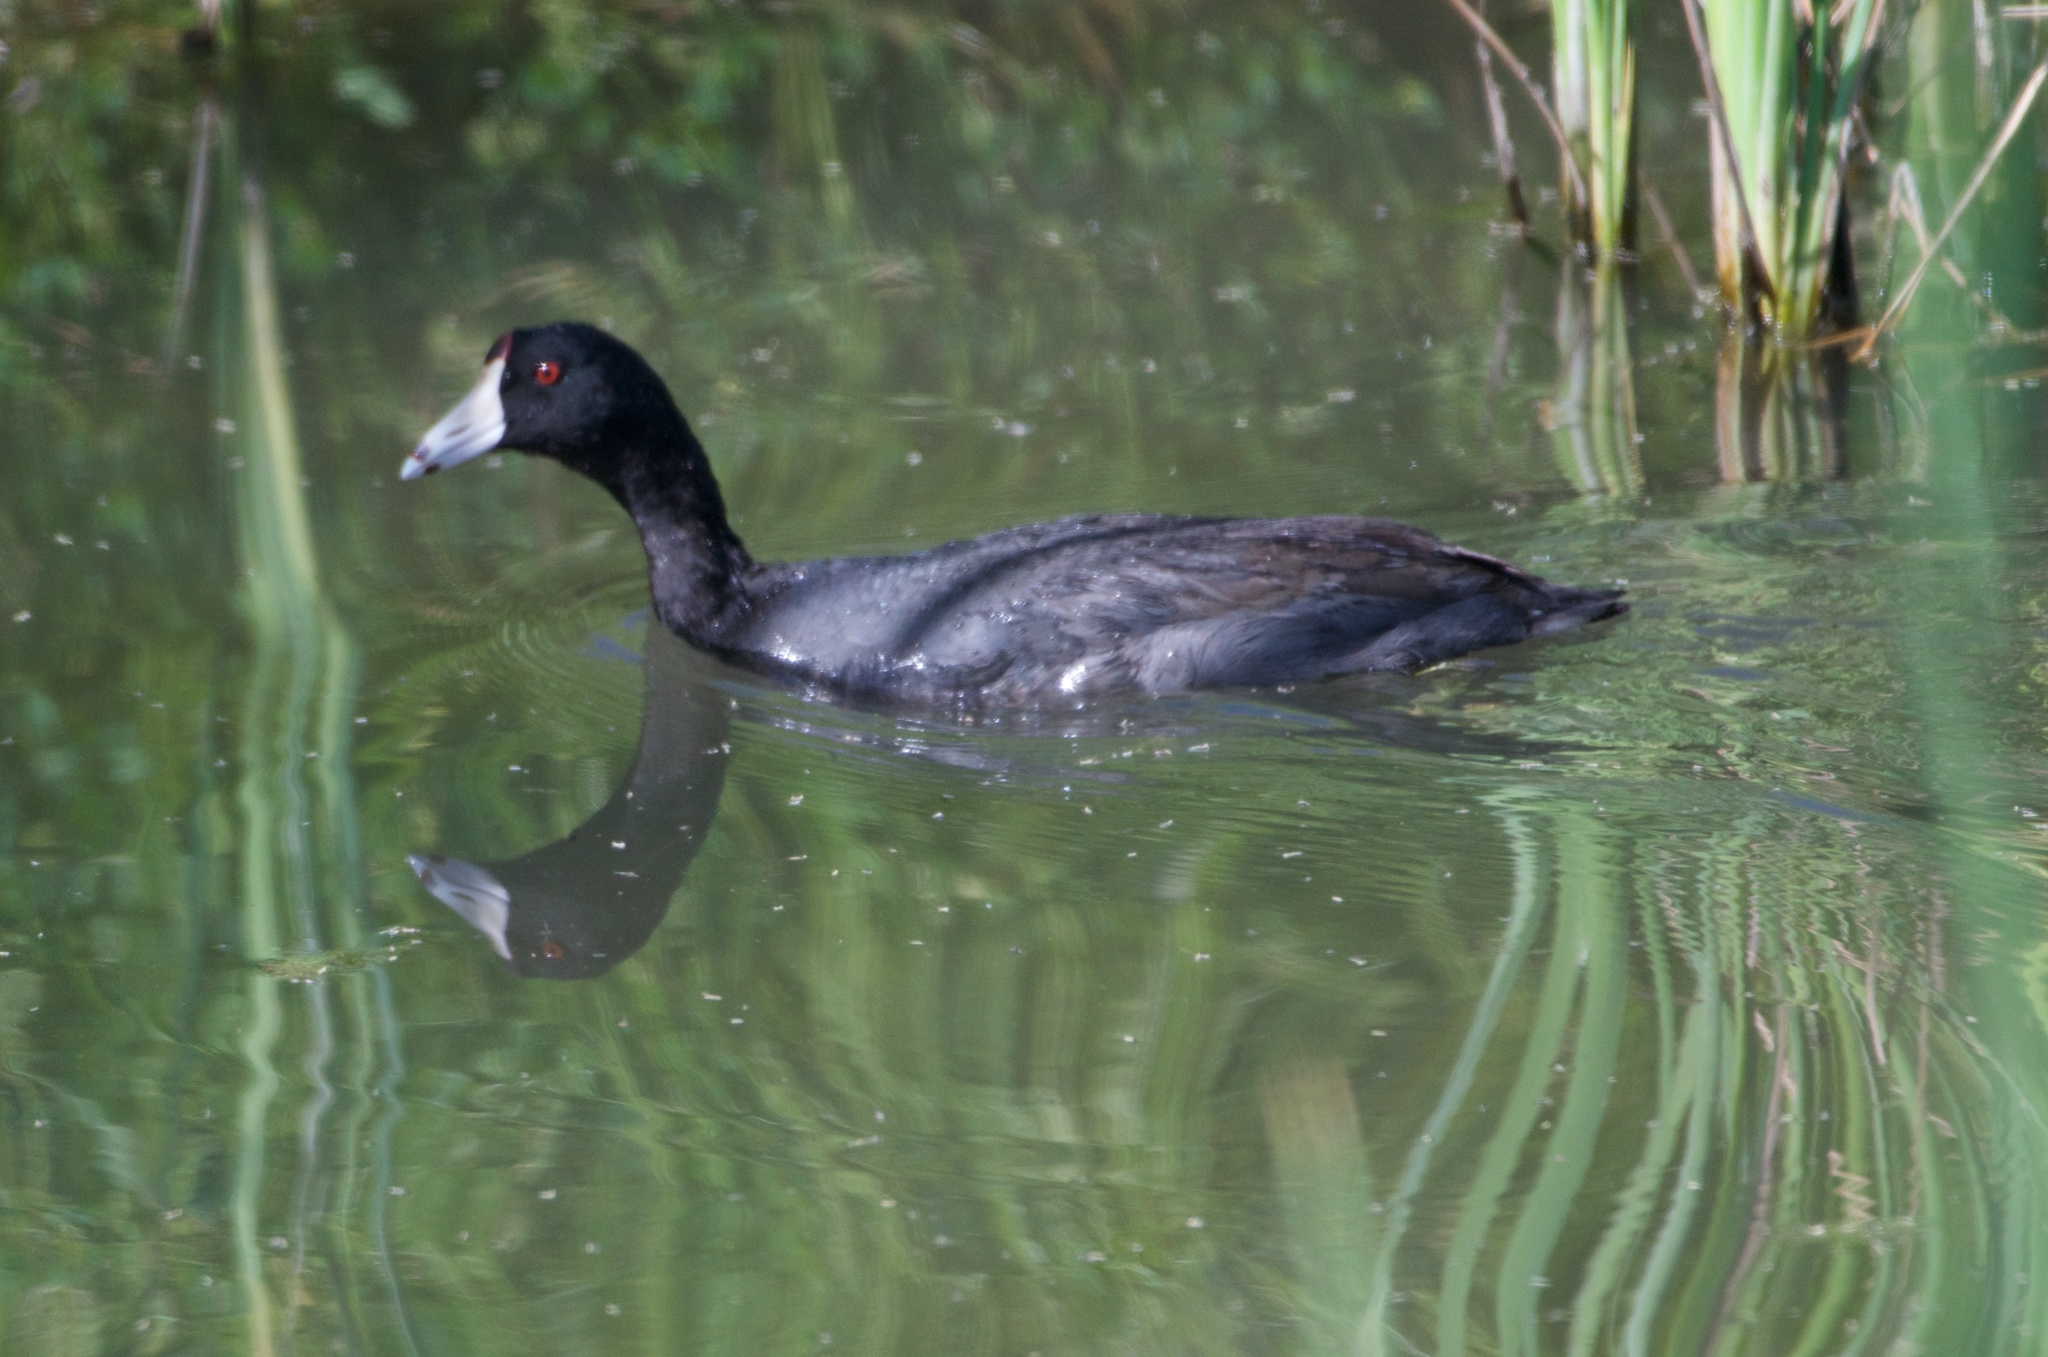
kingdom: Animalia
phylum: Chordata
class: Aves
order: Gruiformes
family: Rallidae
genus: Fulica
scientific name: Fulica americana
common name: American coot
